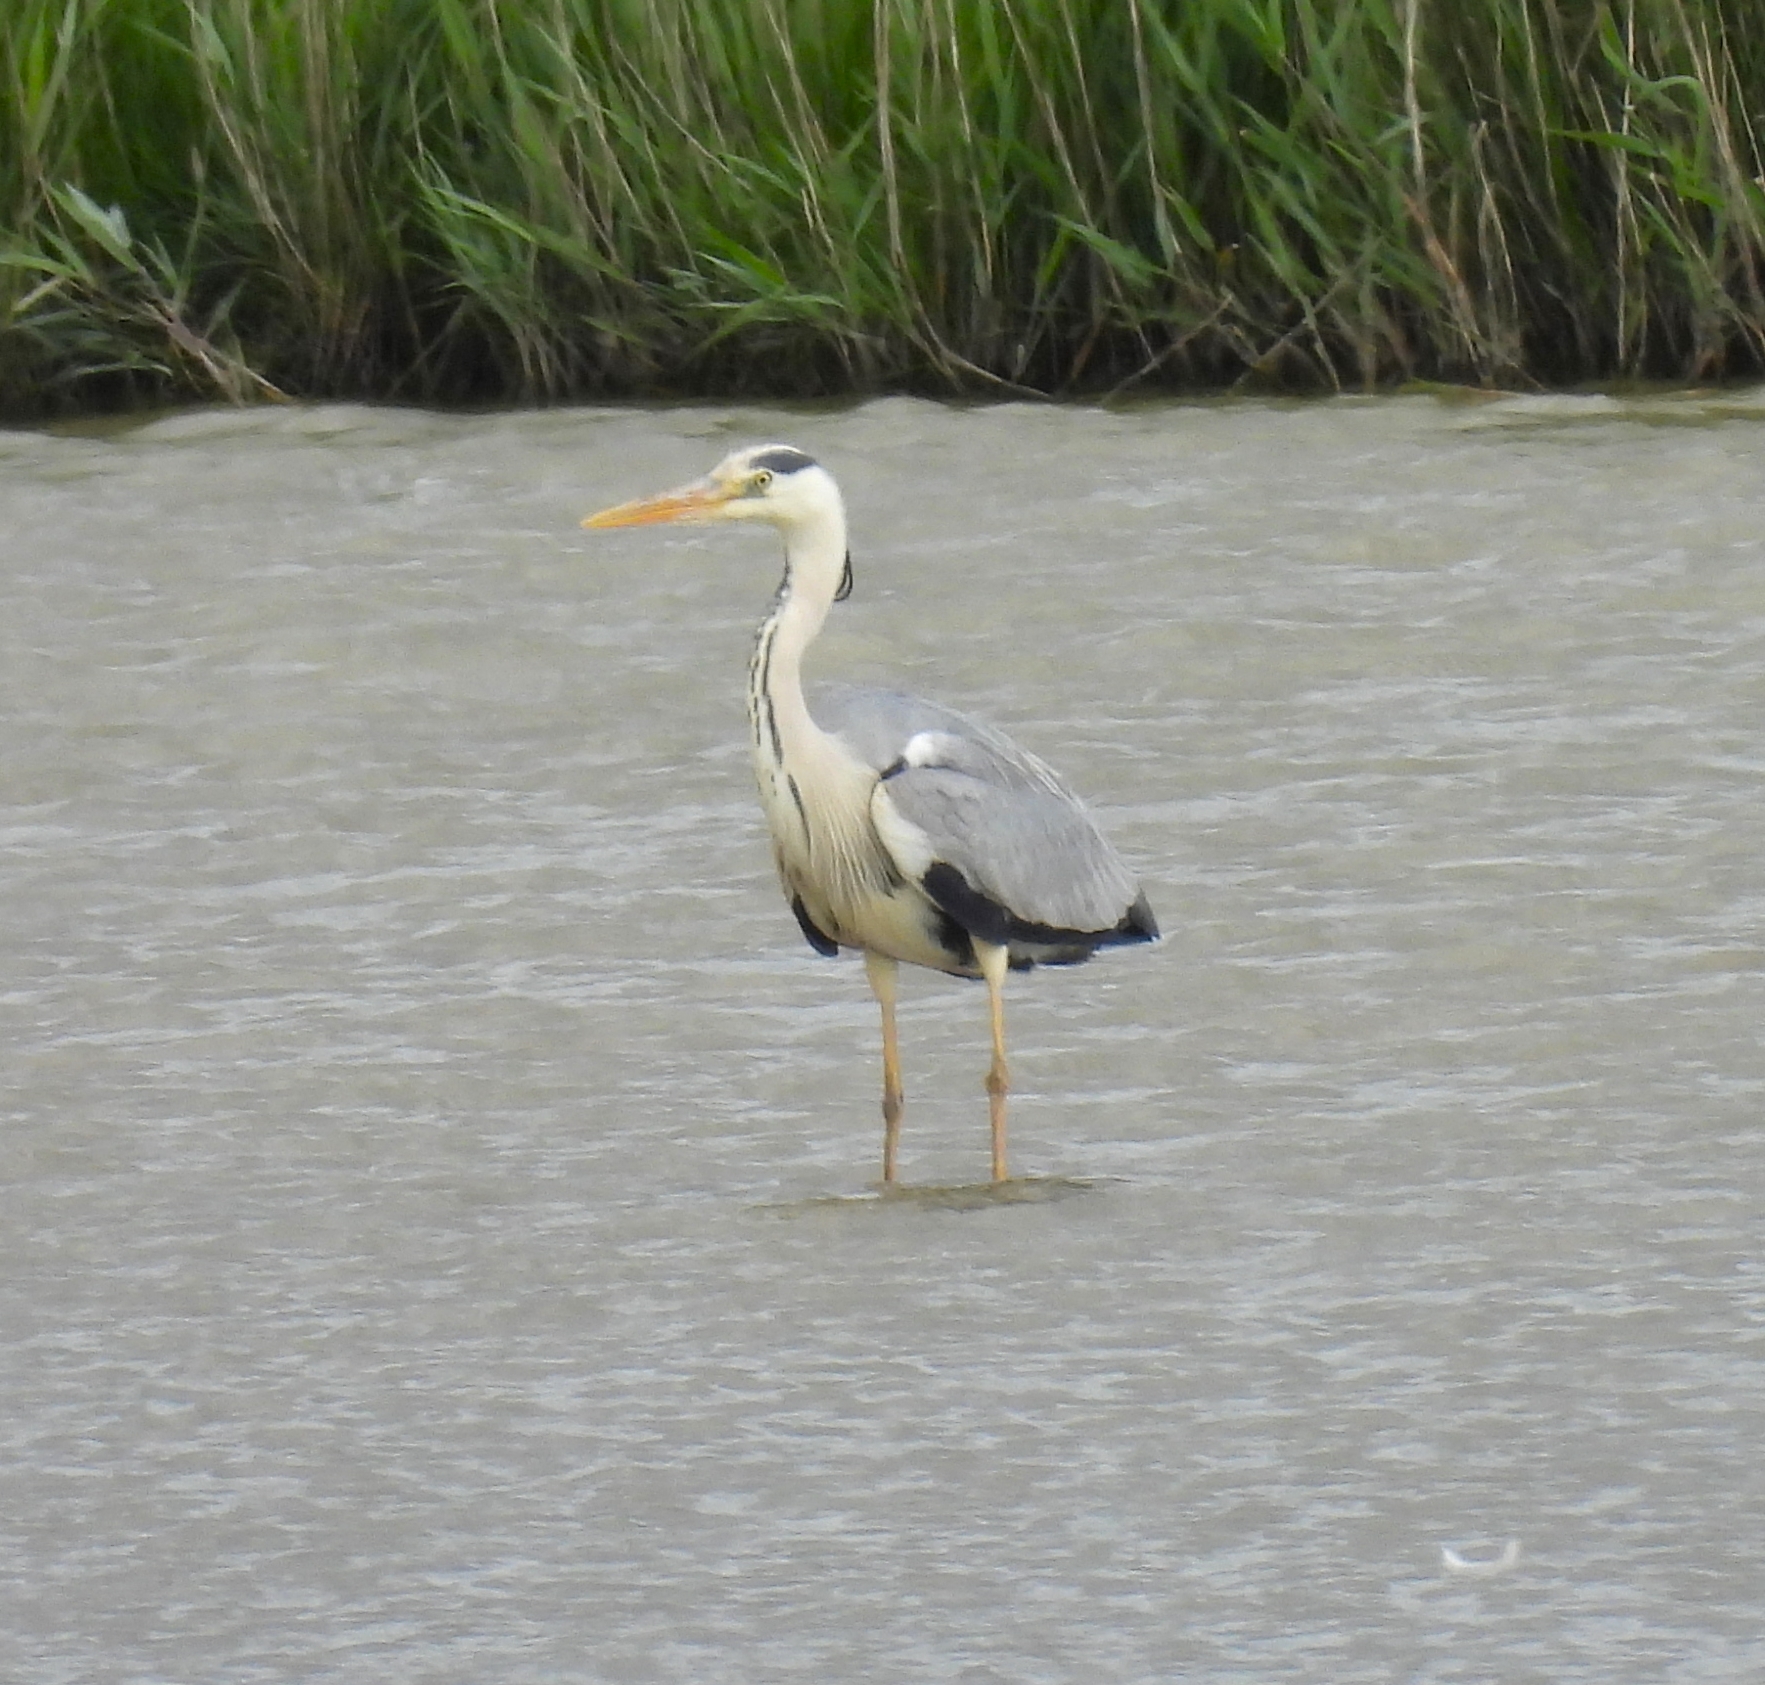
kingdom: Animalia
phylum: Chordata
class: Aves
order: Pelecaniformes
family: Ardeidae
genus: Ardea
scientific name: Ardea cinerea
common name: Grey heron
